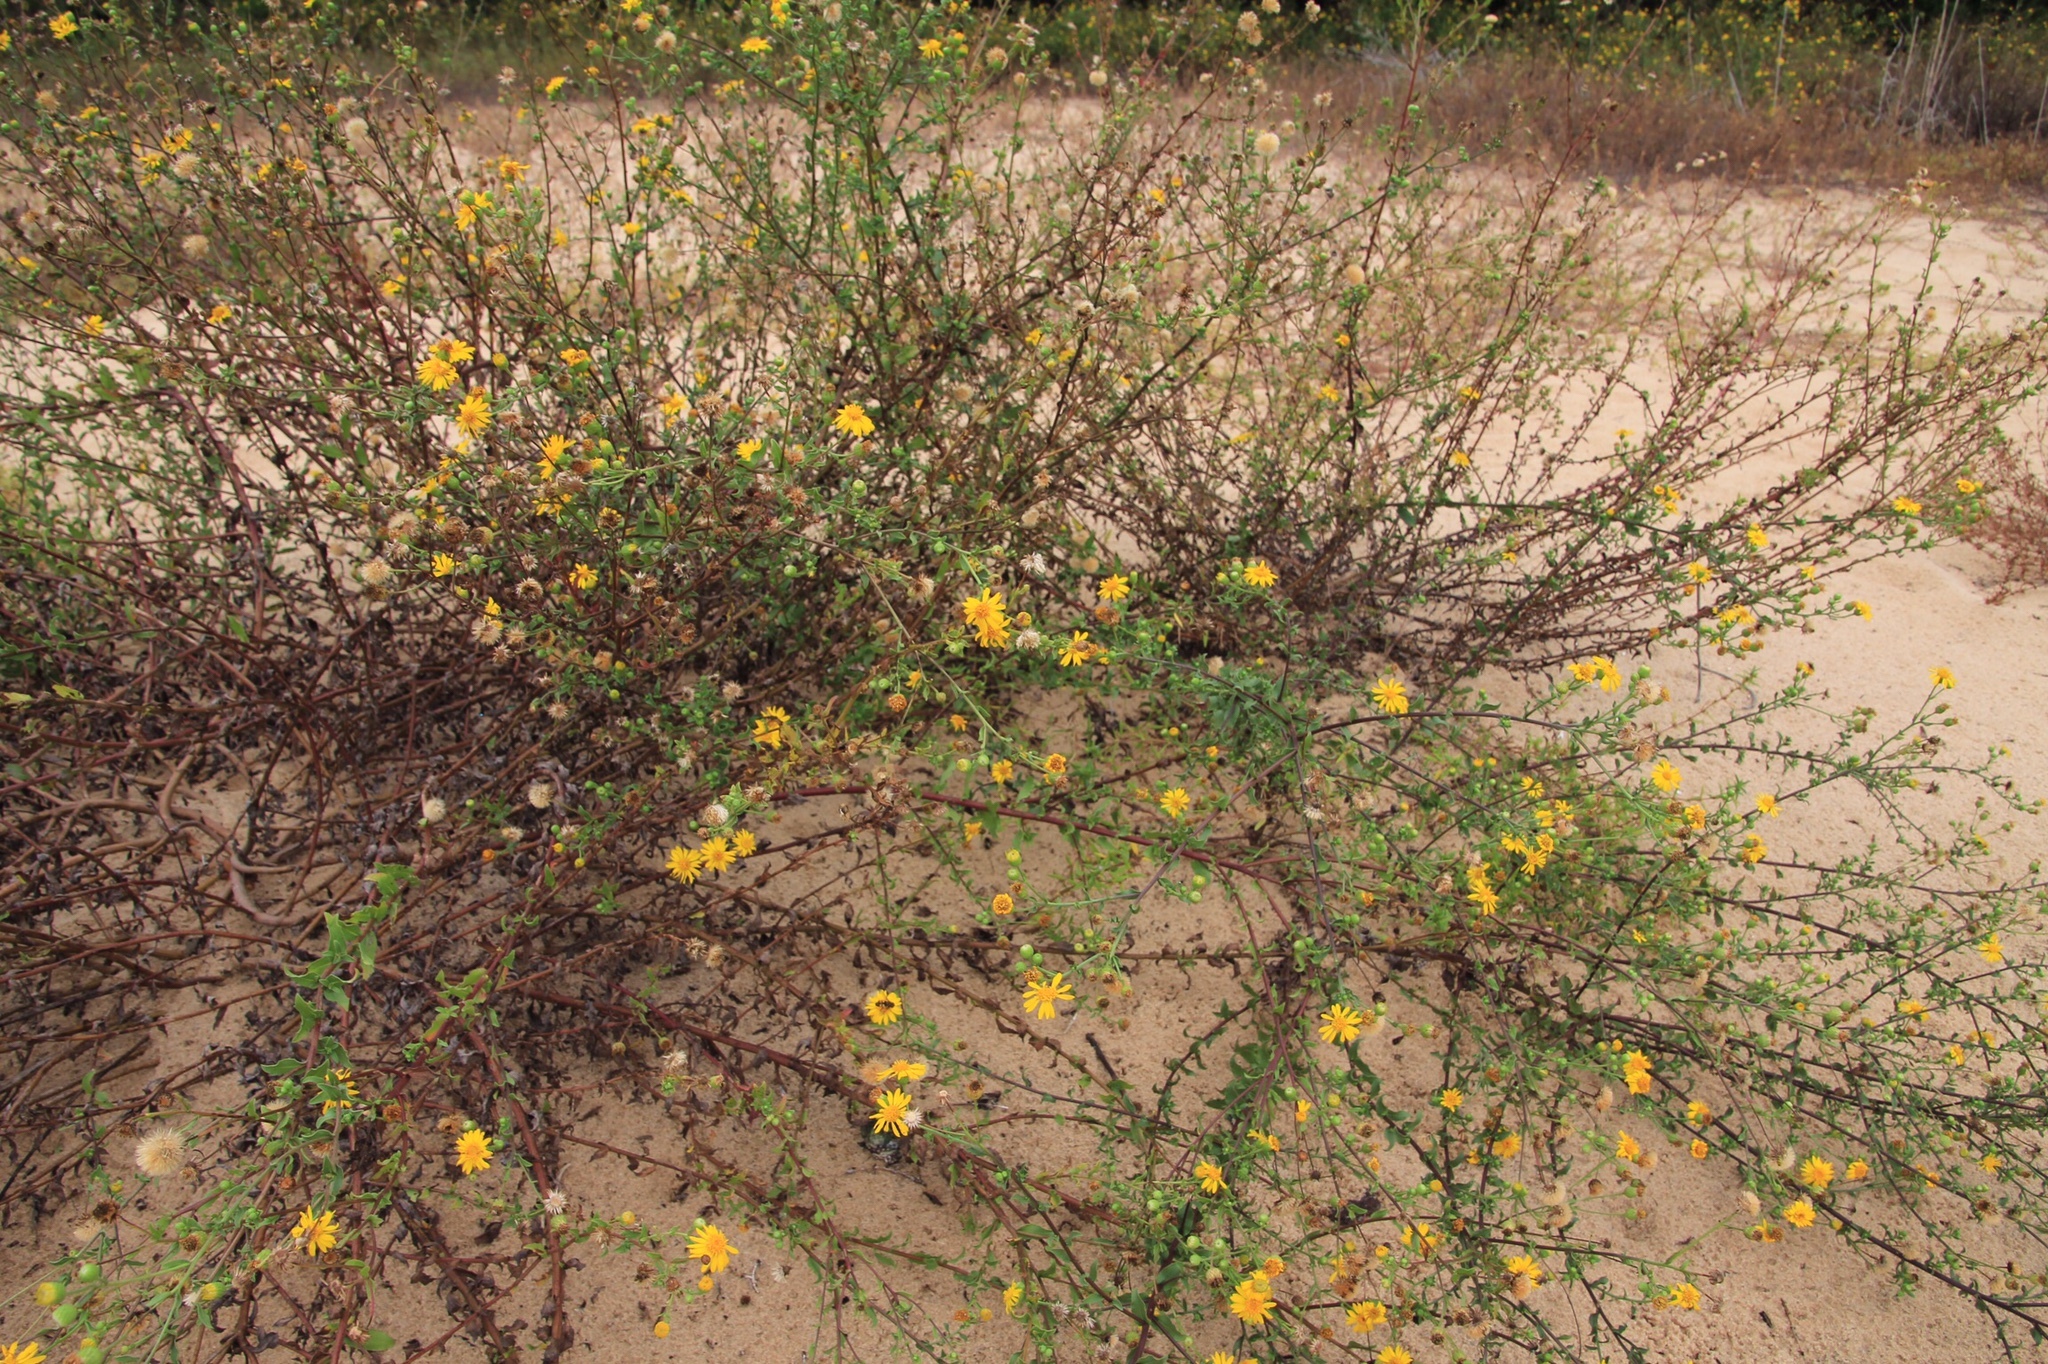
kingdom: Plantae
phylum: Tracheophyta
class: Magnoliopsida
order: Asterales
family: Asteraceae
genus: Heterotheca
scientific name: Heterotheca subaxillaris
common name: Camphorweed
